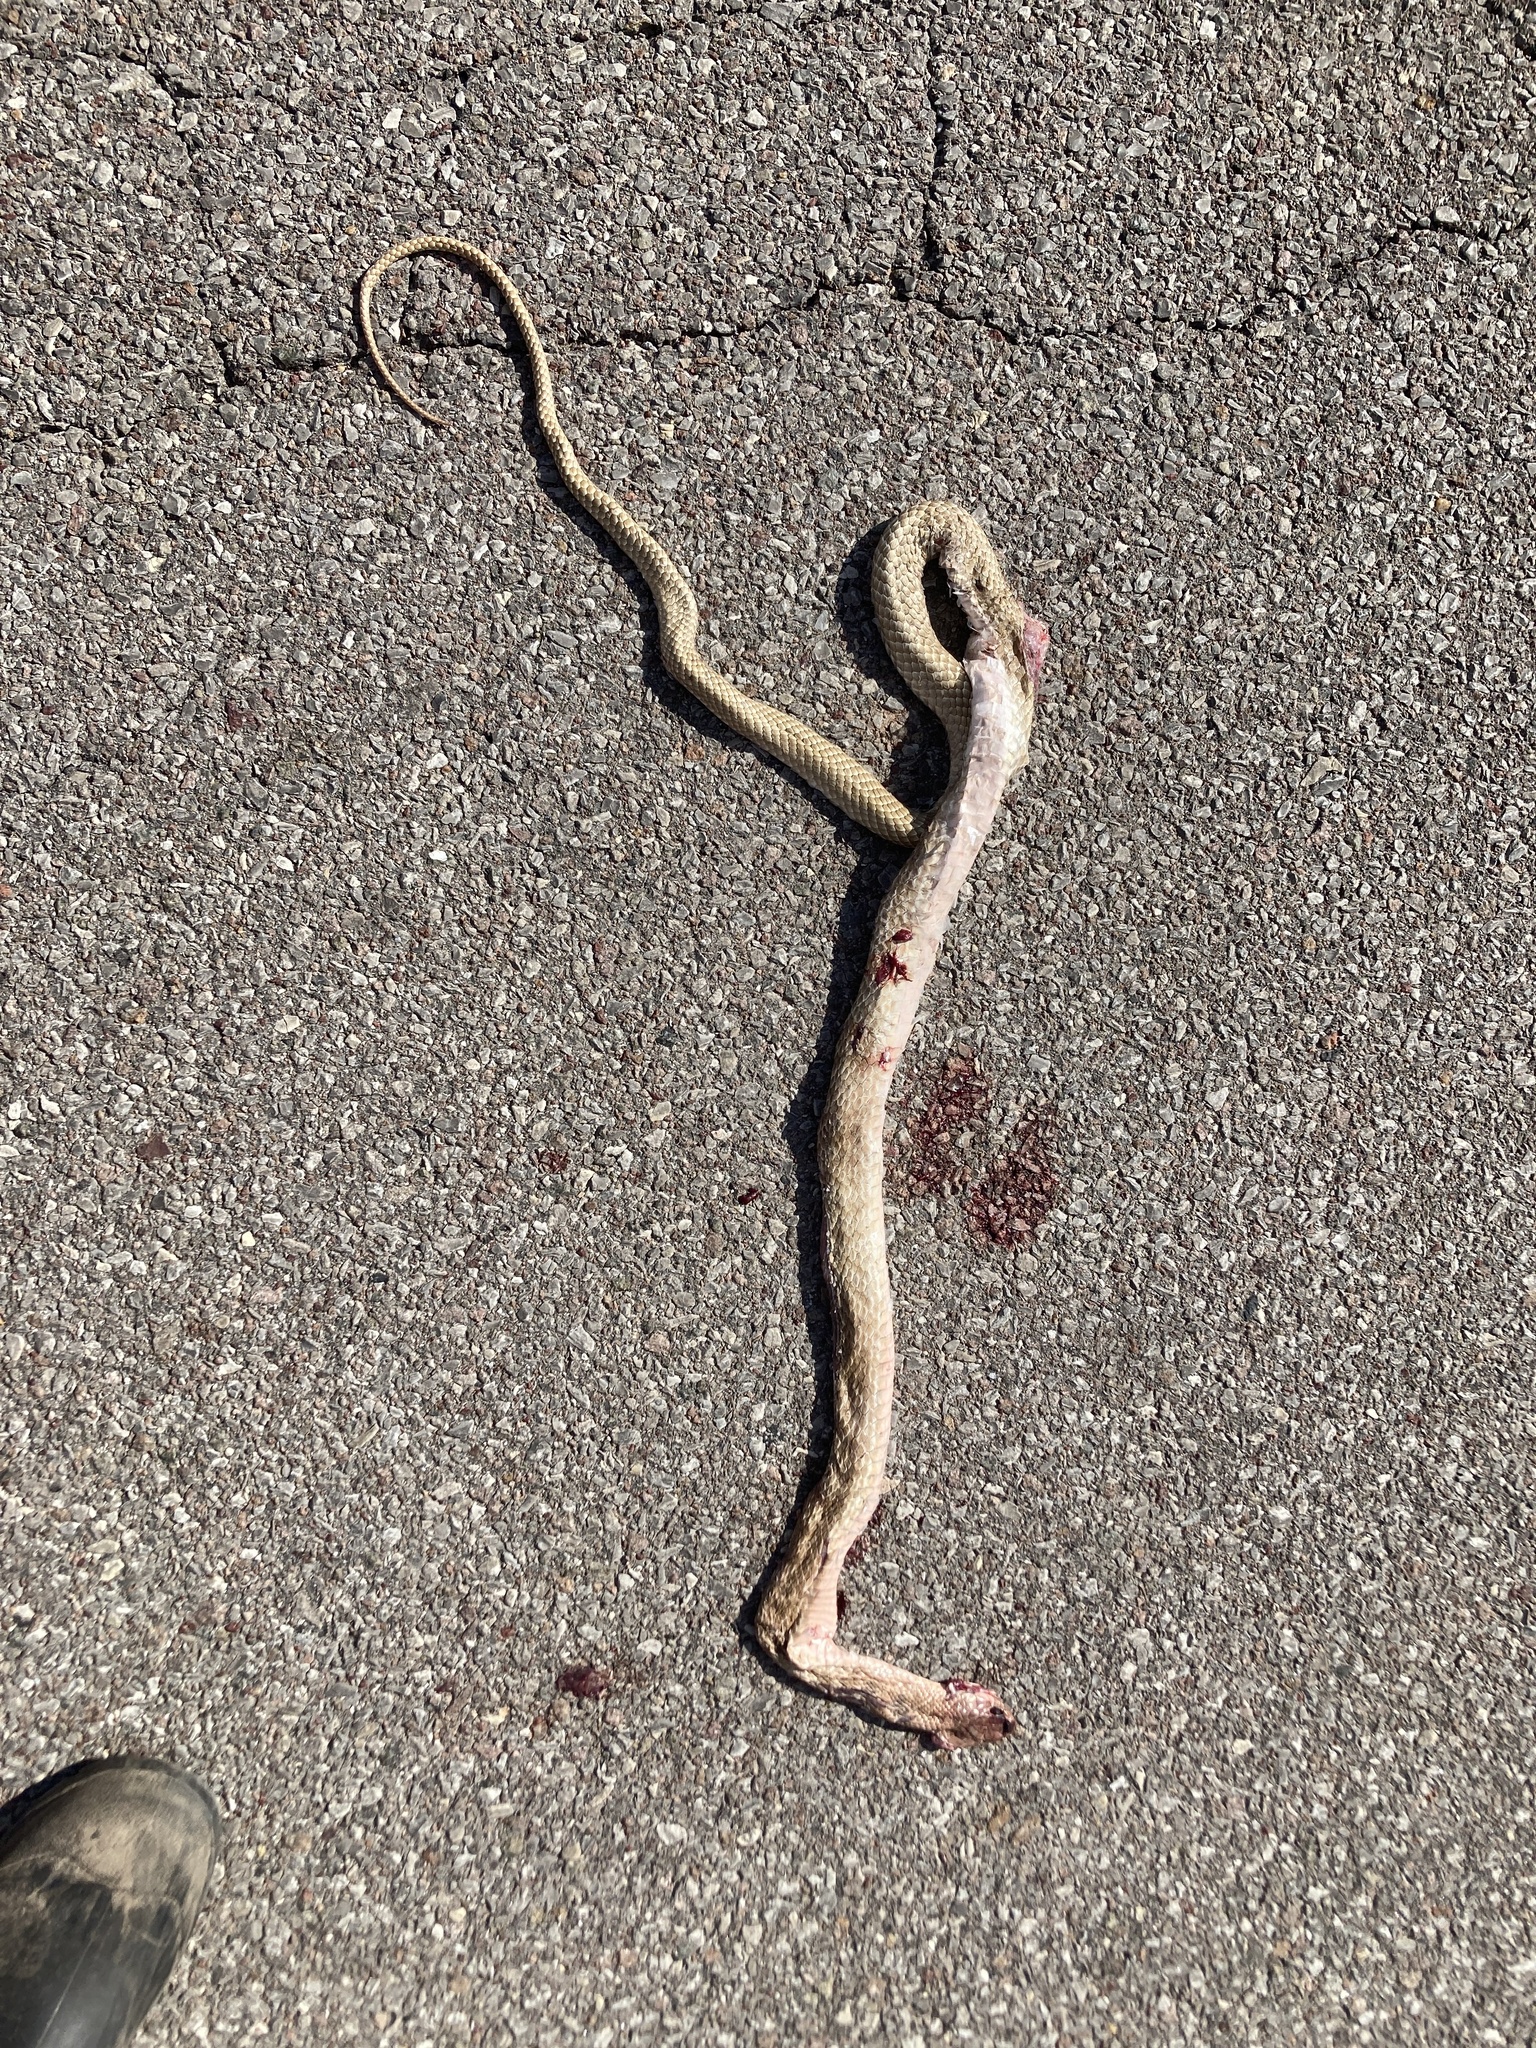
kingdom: Animalia
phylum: Chordata
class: Squamata
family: Colubridae
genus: Masticophis
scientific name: Masticophis flagellum
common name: Coachwhip
